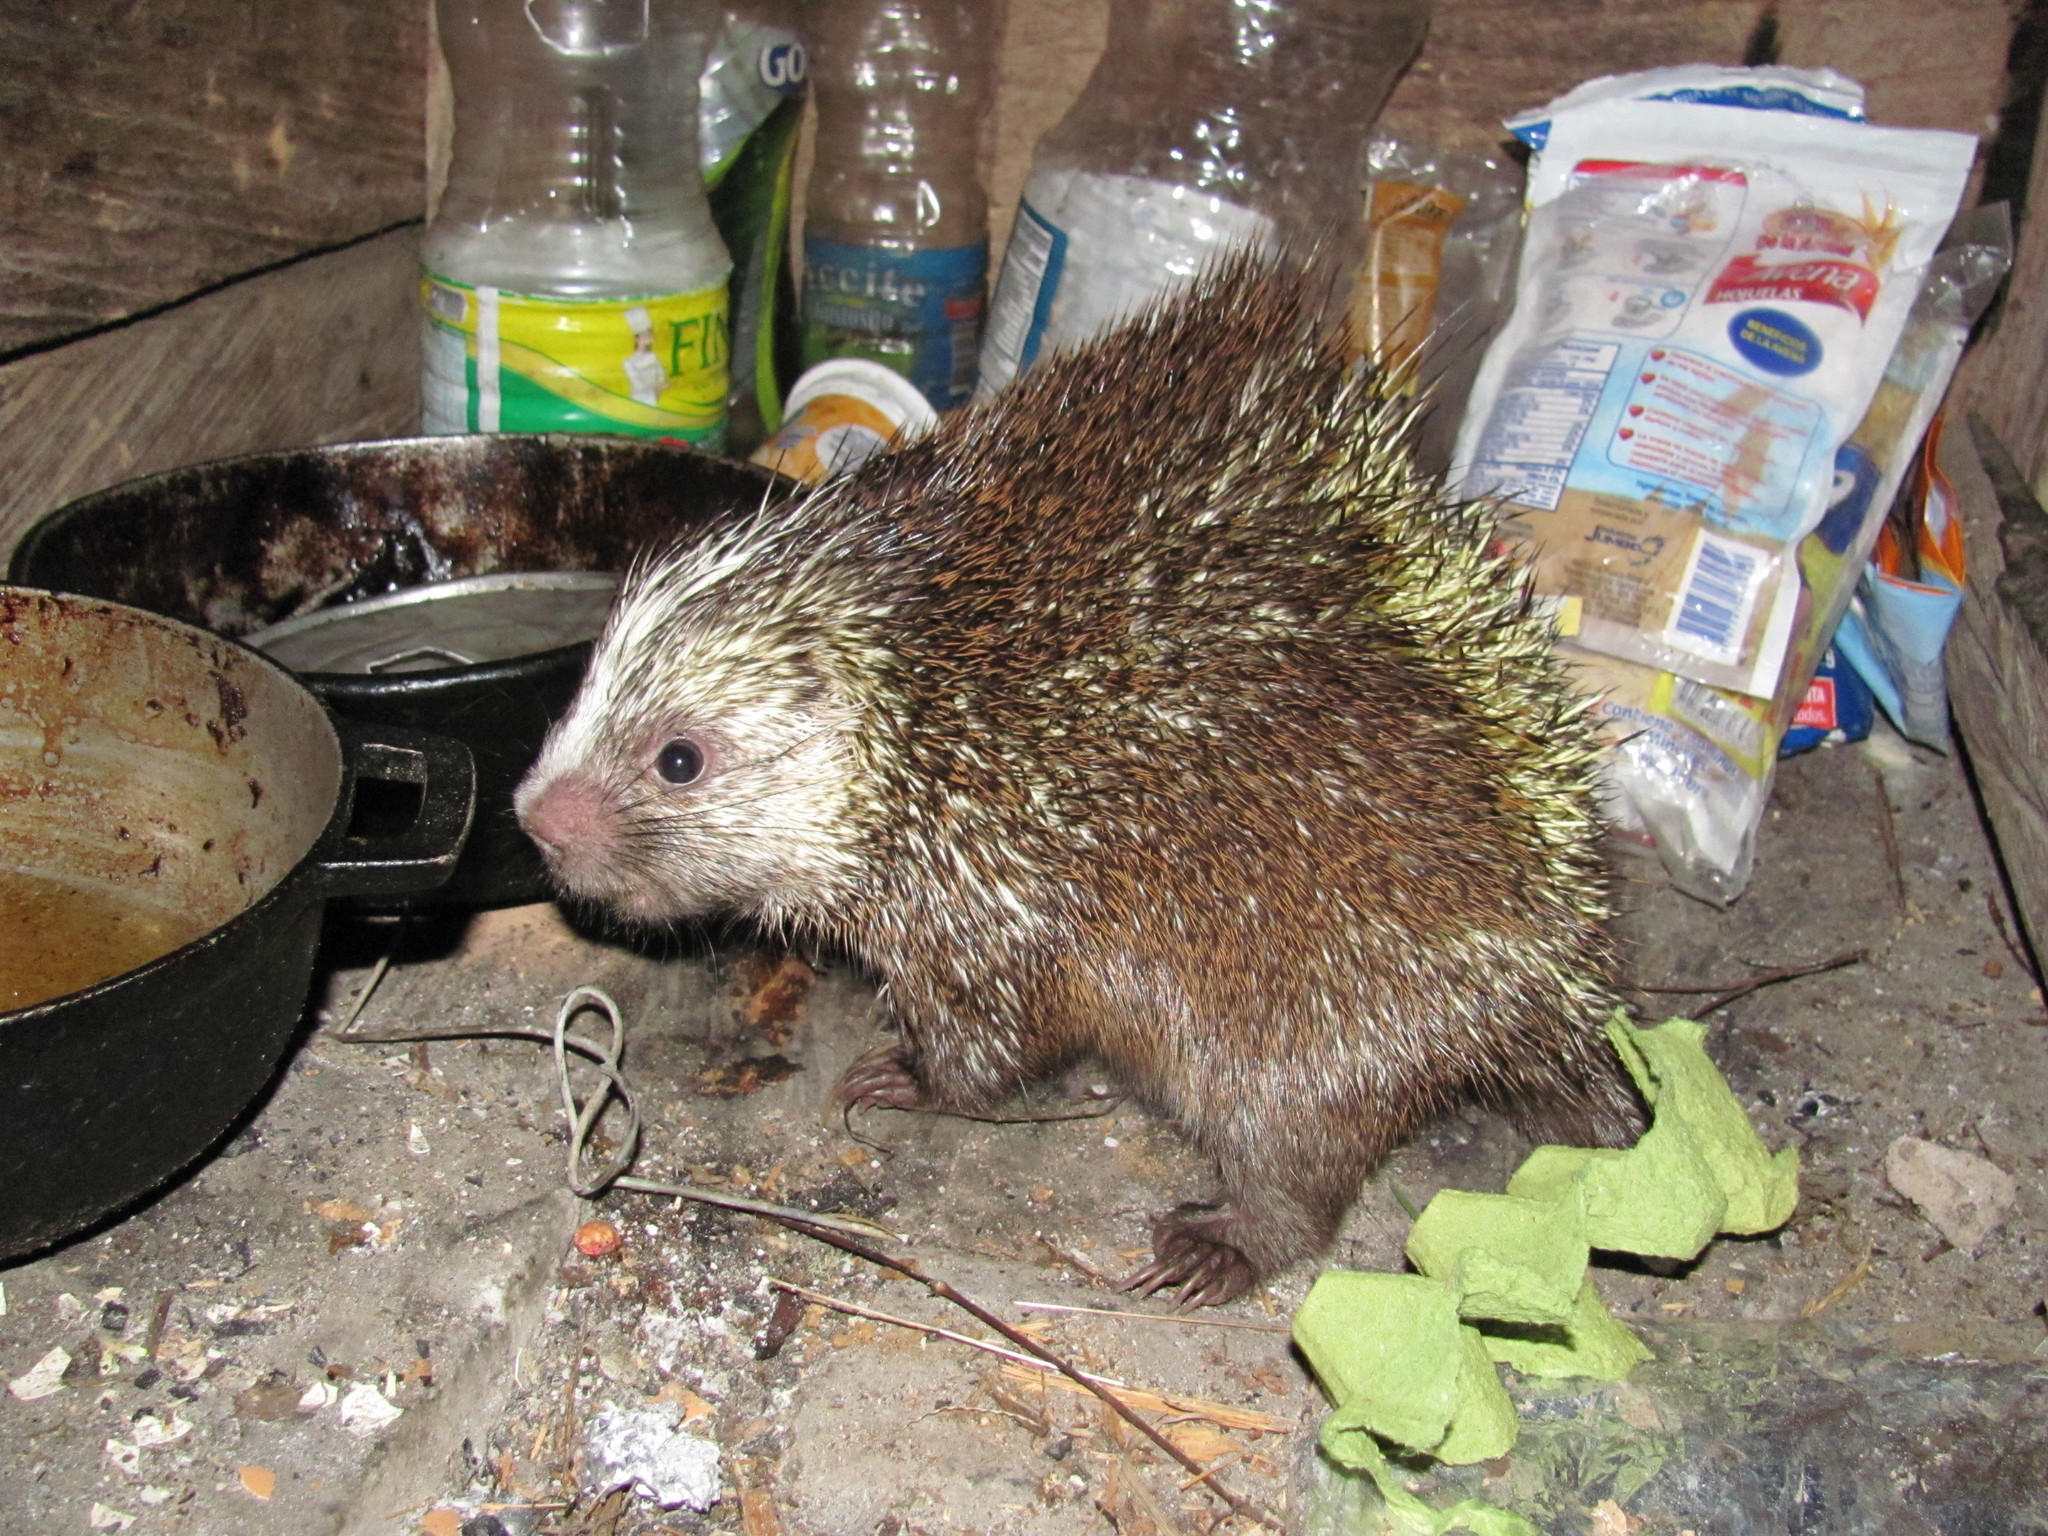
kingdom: Animalia
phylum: Chordata
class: Mammalia
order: Rodentia
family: Erethizontidae
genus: Echinoprocta
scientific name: Echinoprocta rufescens
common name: Stump-tailed porcupine
